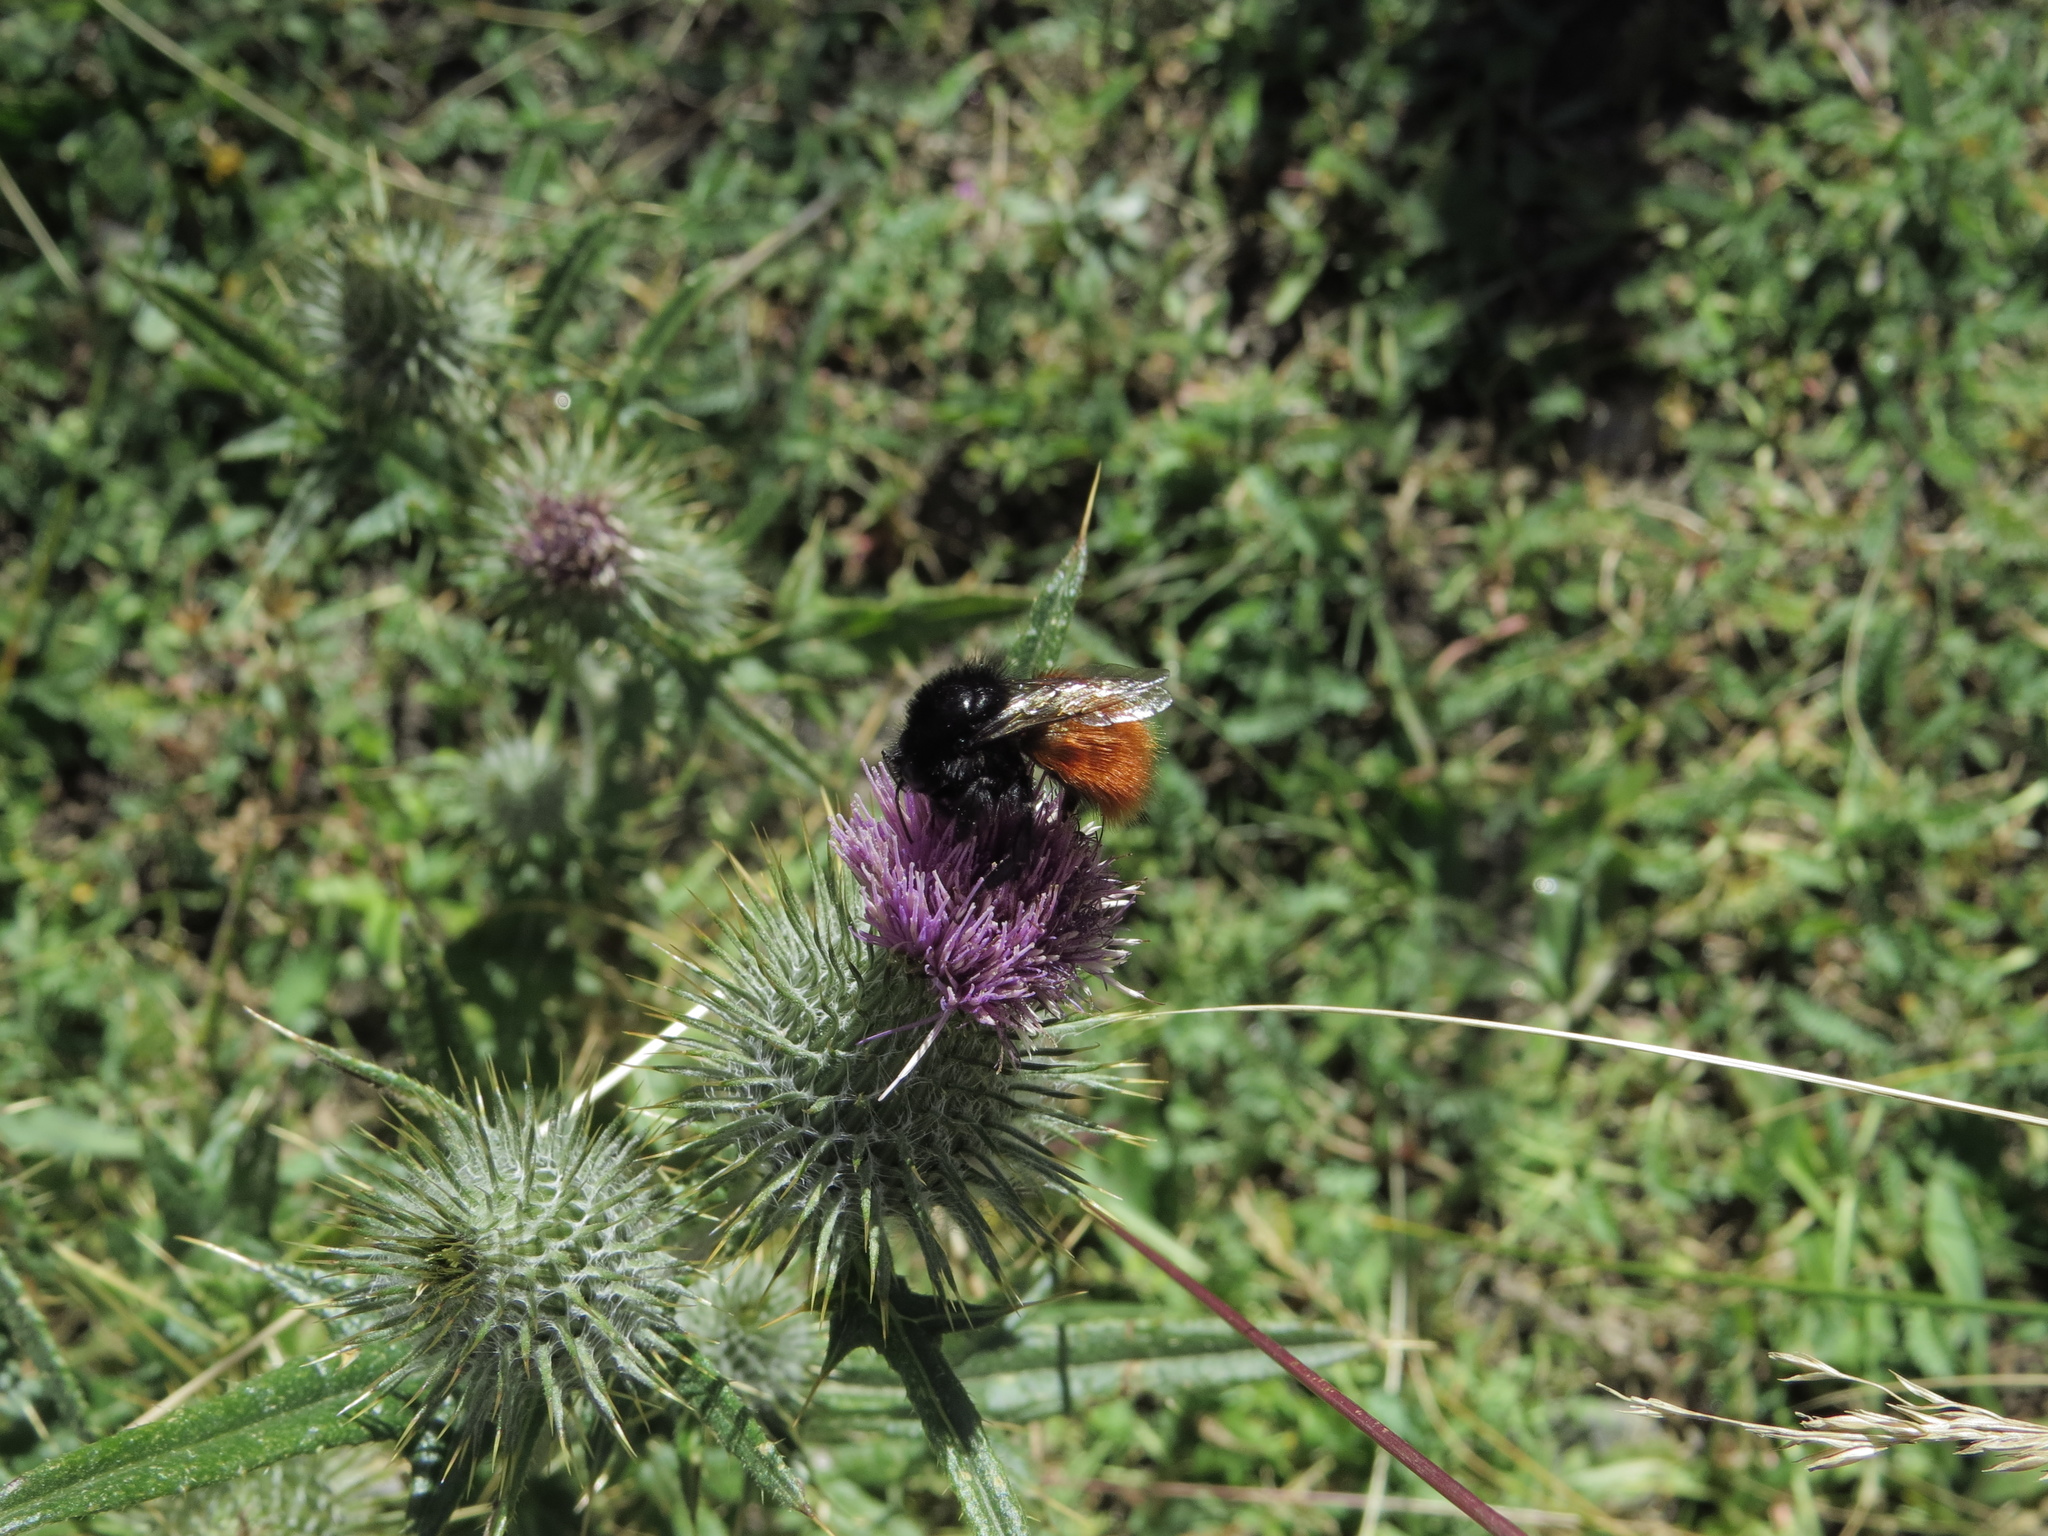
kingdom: Plantae
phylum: Tracheophyta
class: Magnoliopsida
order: Asterales
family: Asteraceae
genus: Cirsium
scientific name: Cirsium vulgare
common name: Bull thistle
